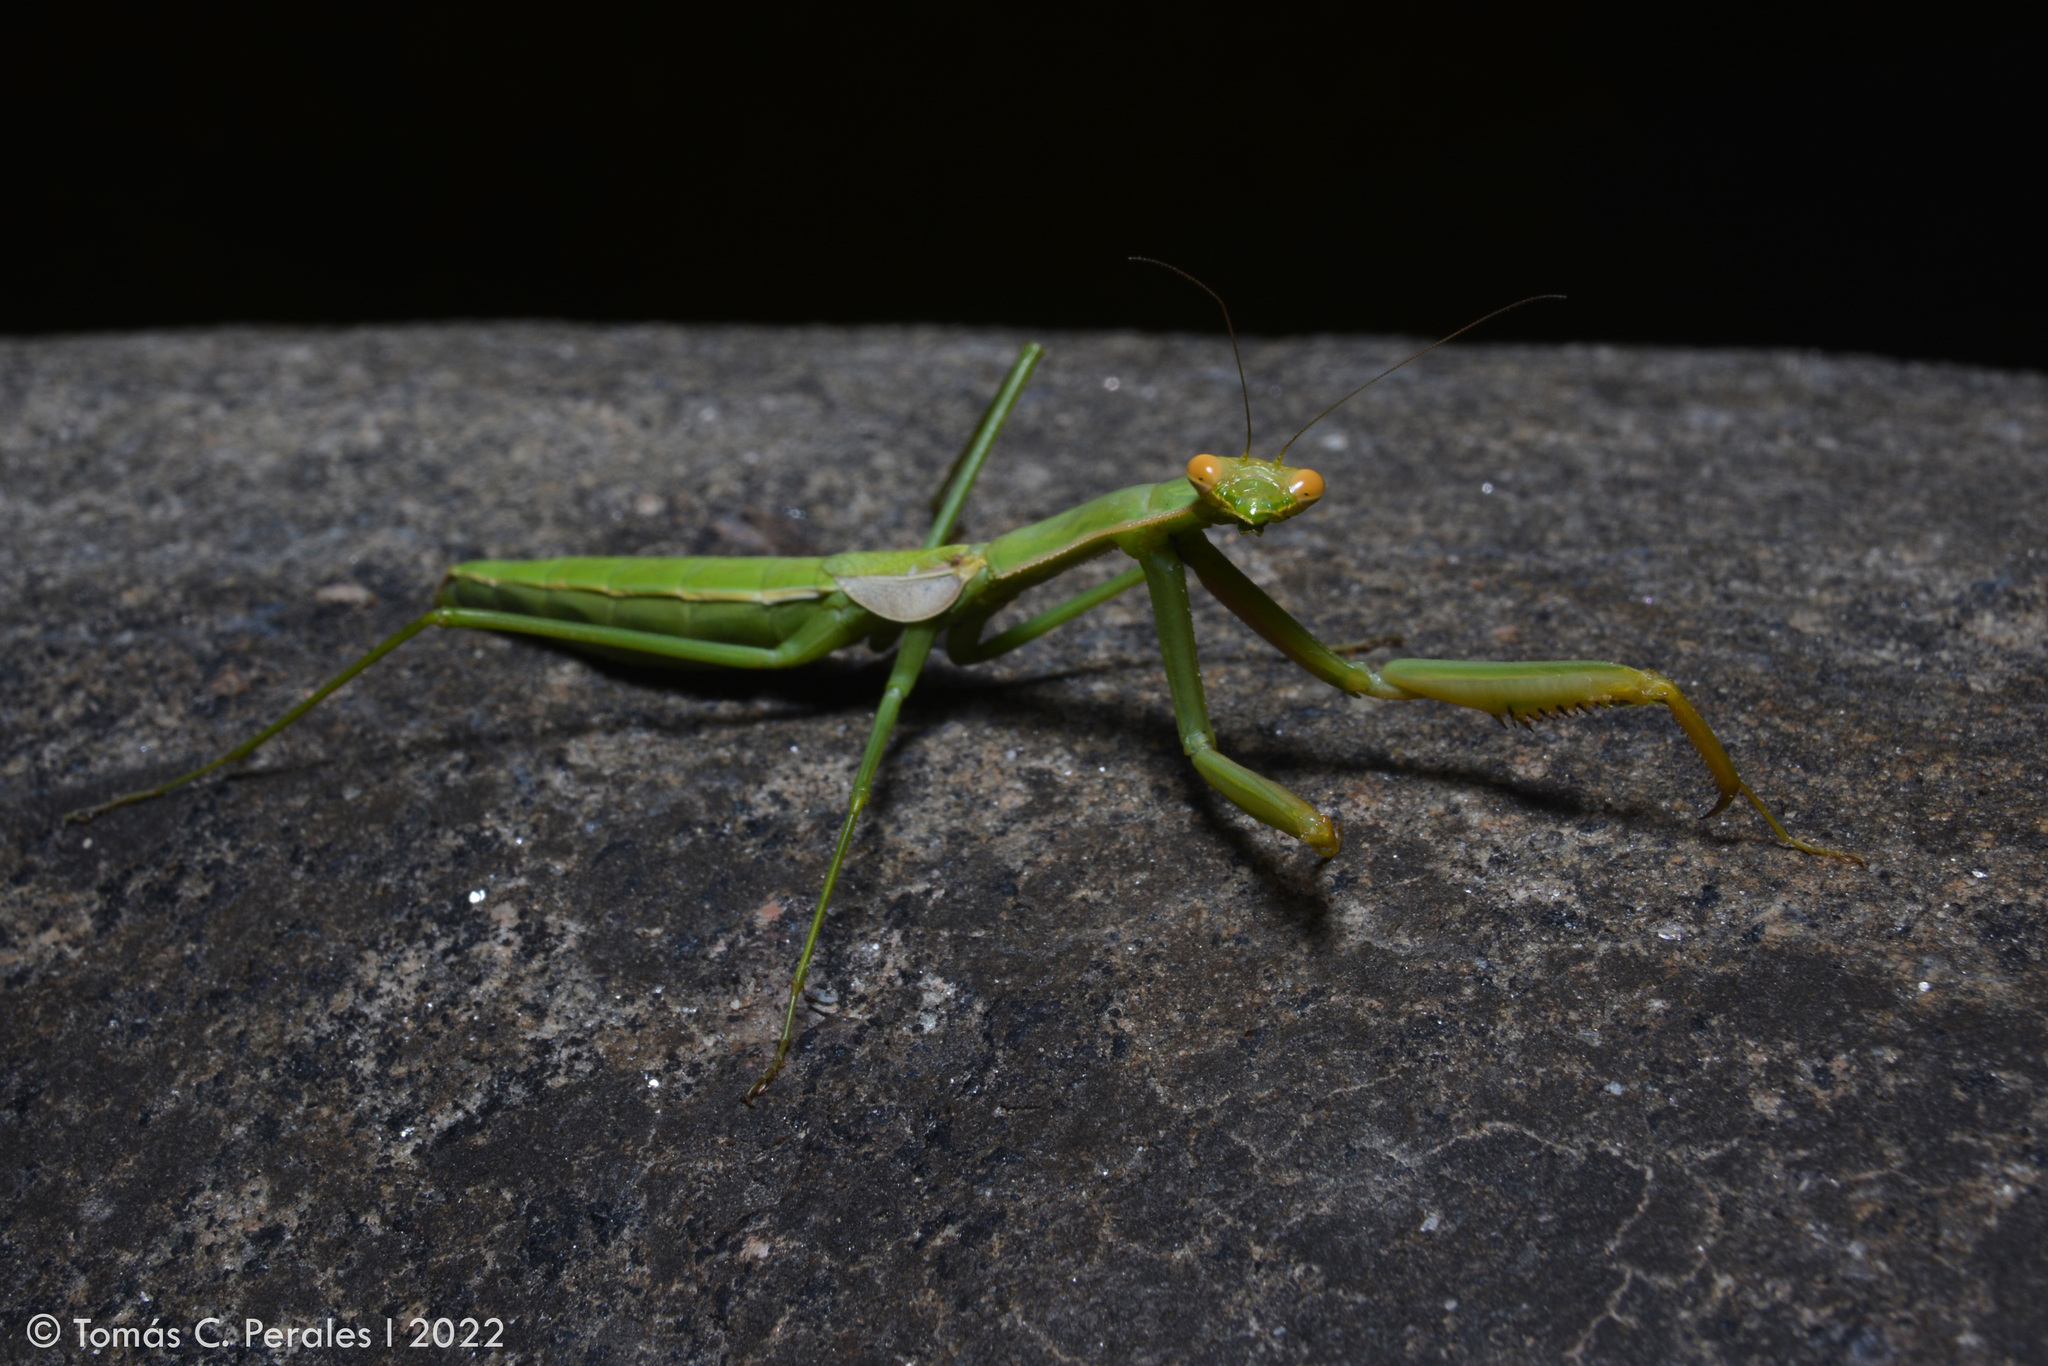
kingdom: Animalia
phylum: Arthropoda
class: Insecta
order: Mantodea
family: Coptopterygidae
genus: Coptopteryx
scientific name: Coptopteryx argentina
